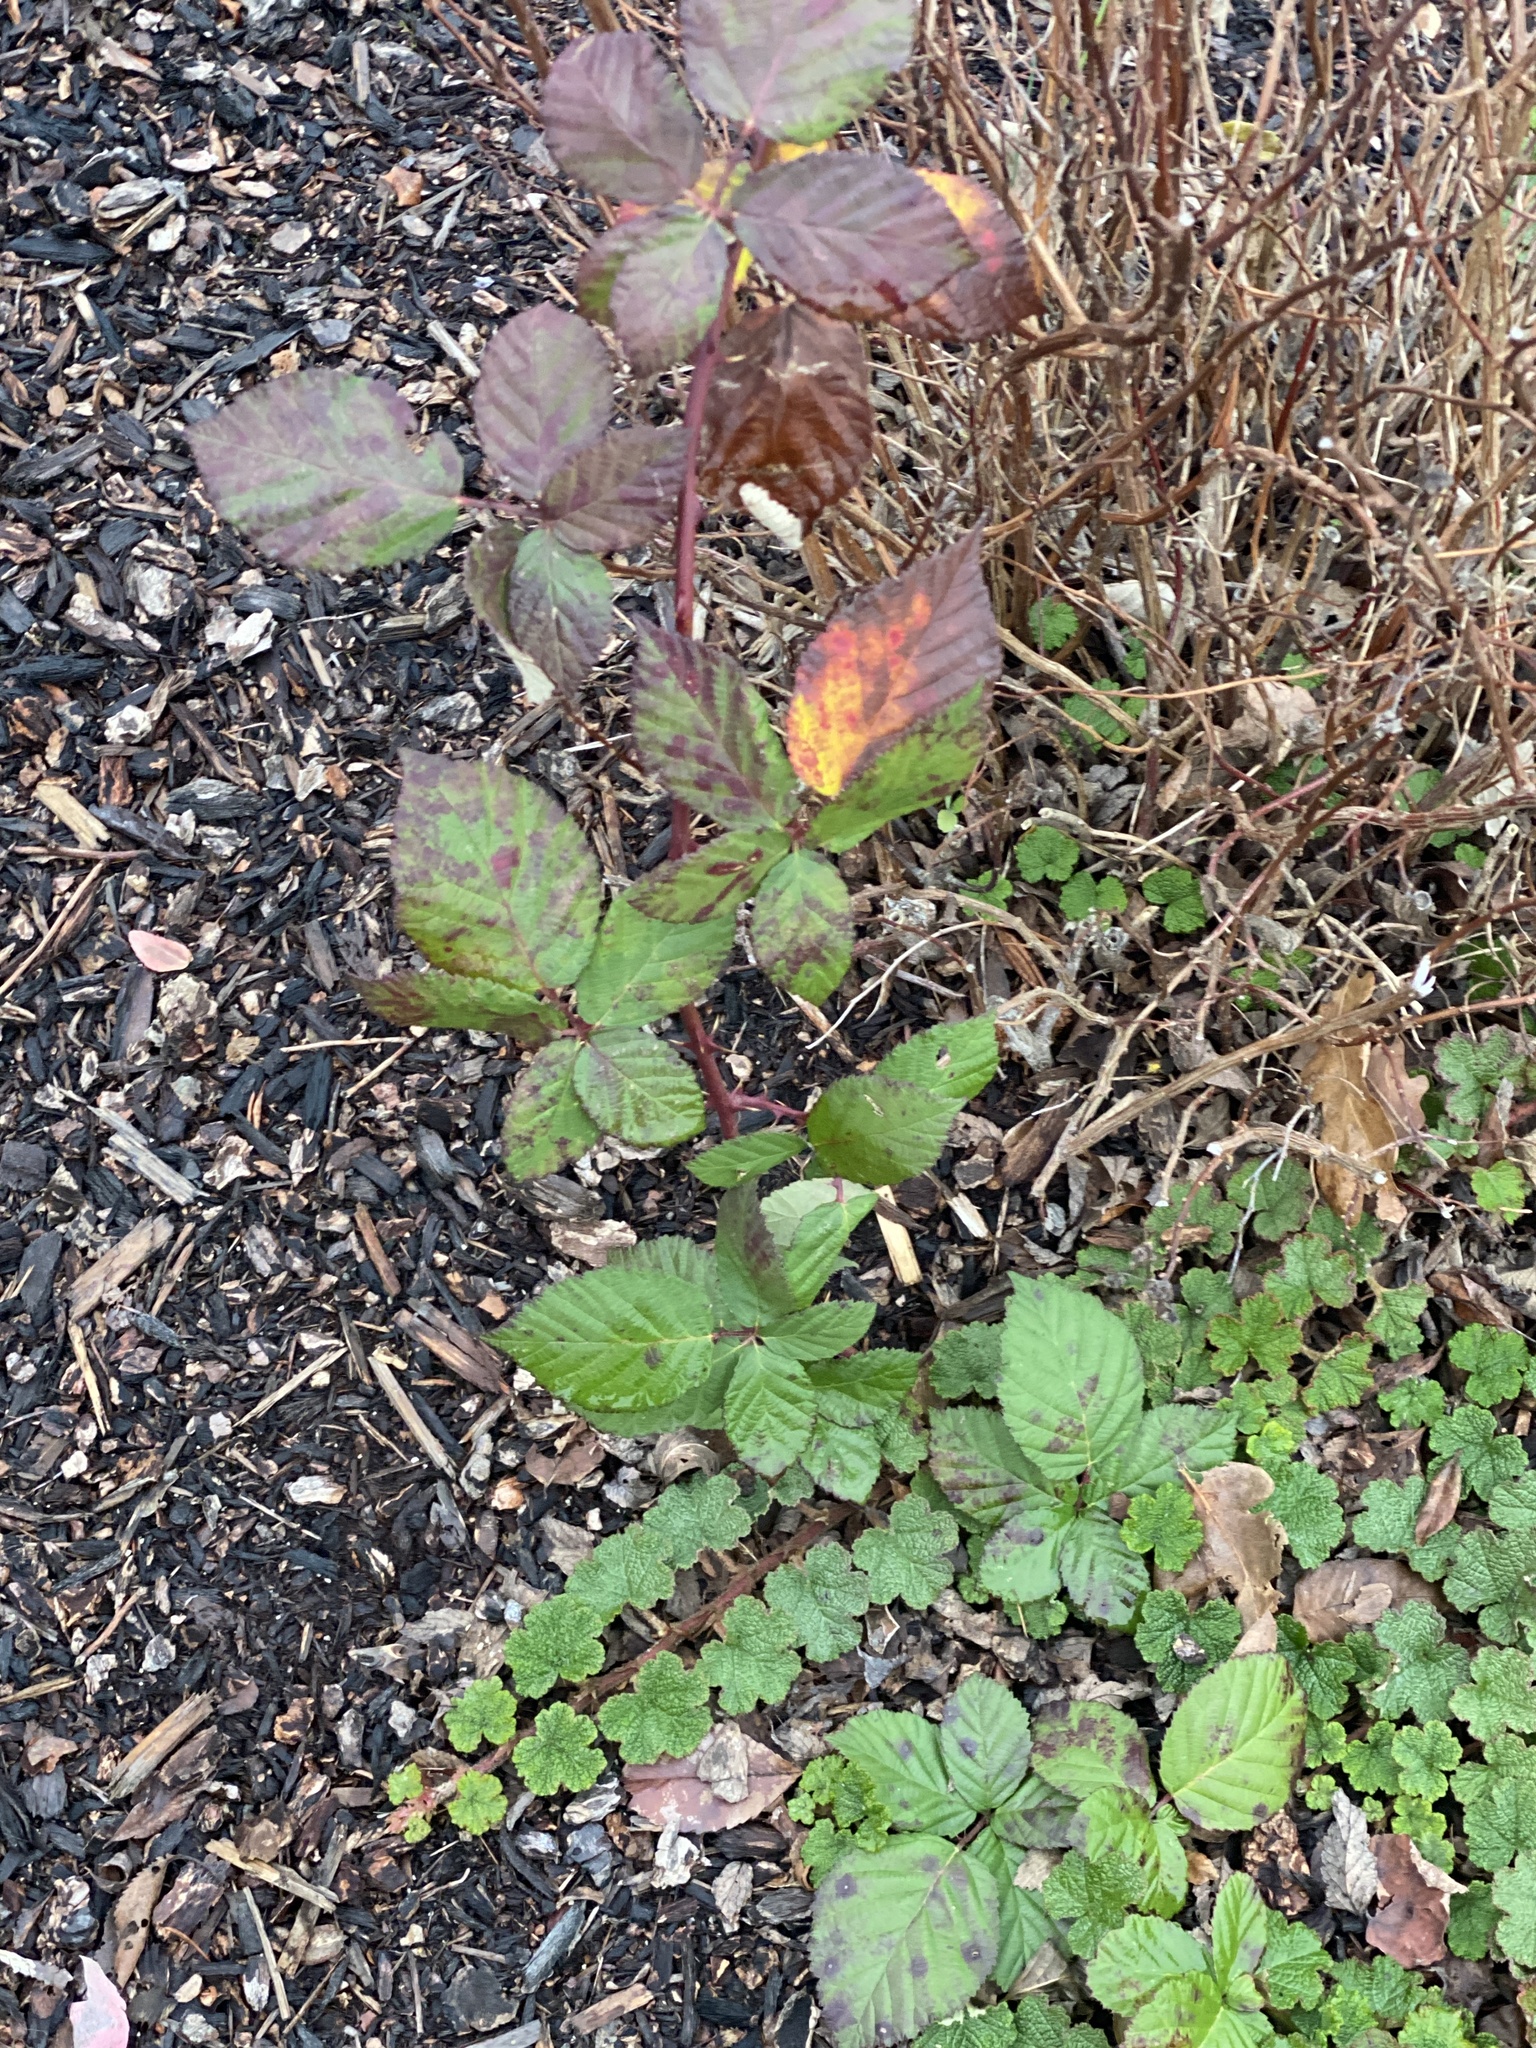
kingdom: Plantae
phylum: Tracheophyta
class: Magnoliopsida
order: Rosales
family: Rosaceae
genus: Rubus
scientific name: Rubus bifrons
